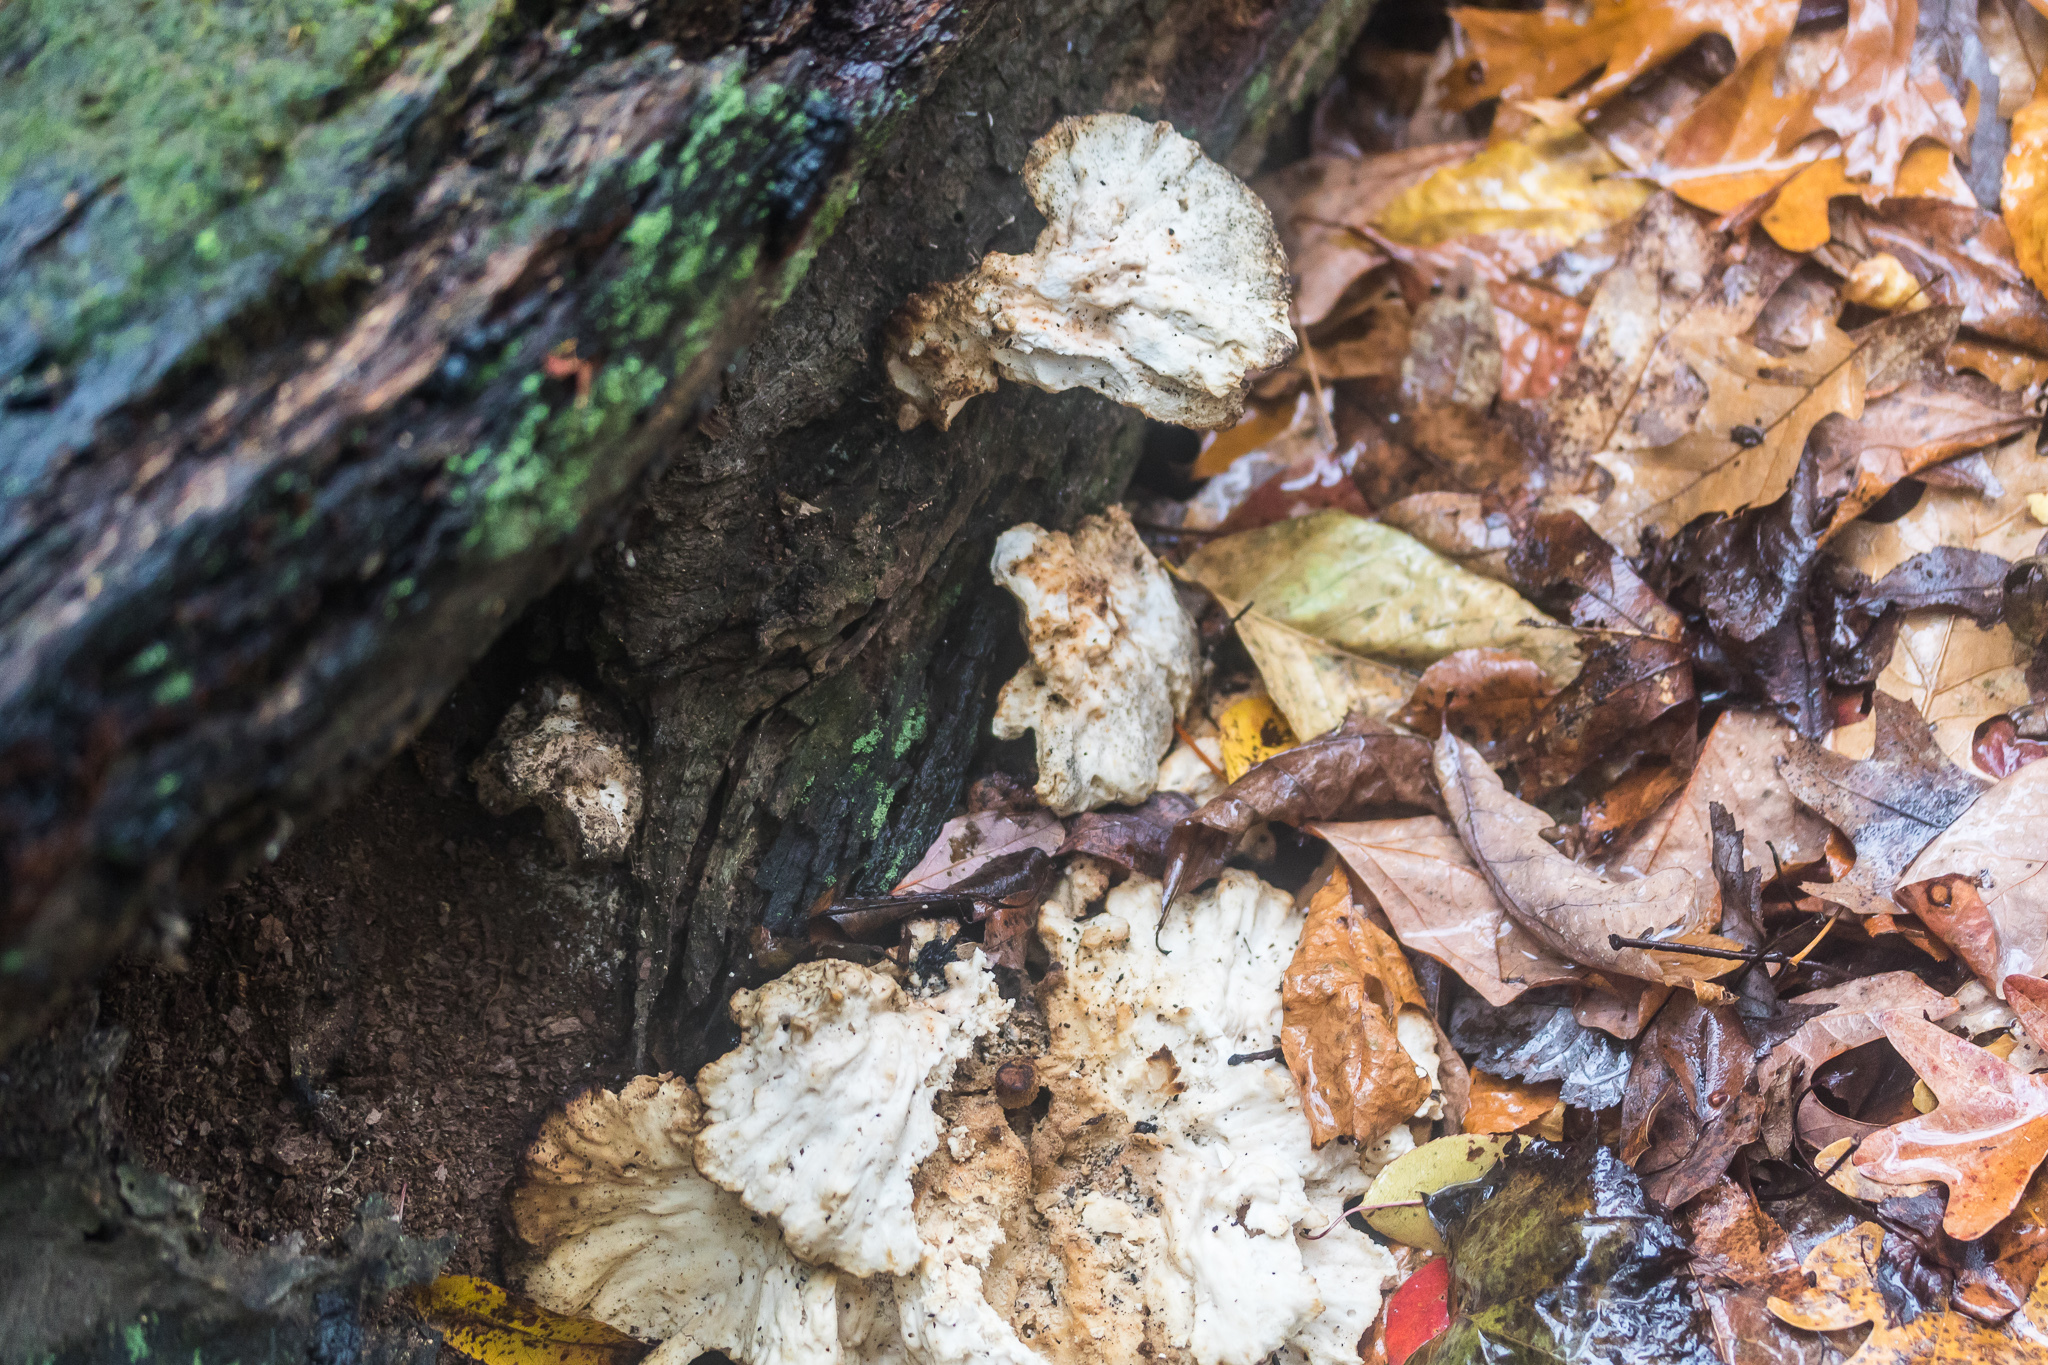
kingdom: Fungi
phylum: Basidiomycota
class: Agaricomycetes
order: Polyporales
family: Laetiporaceae
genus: Laetiporus
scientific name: Laetiporus sulphureus
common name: Chicken of the woods
